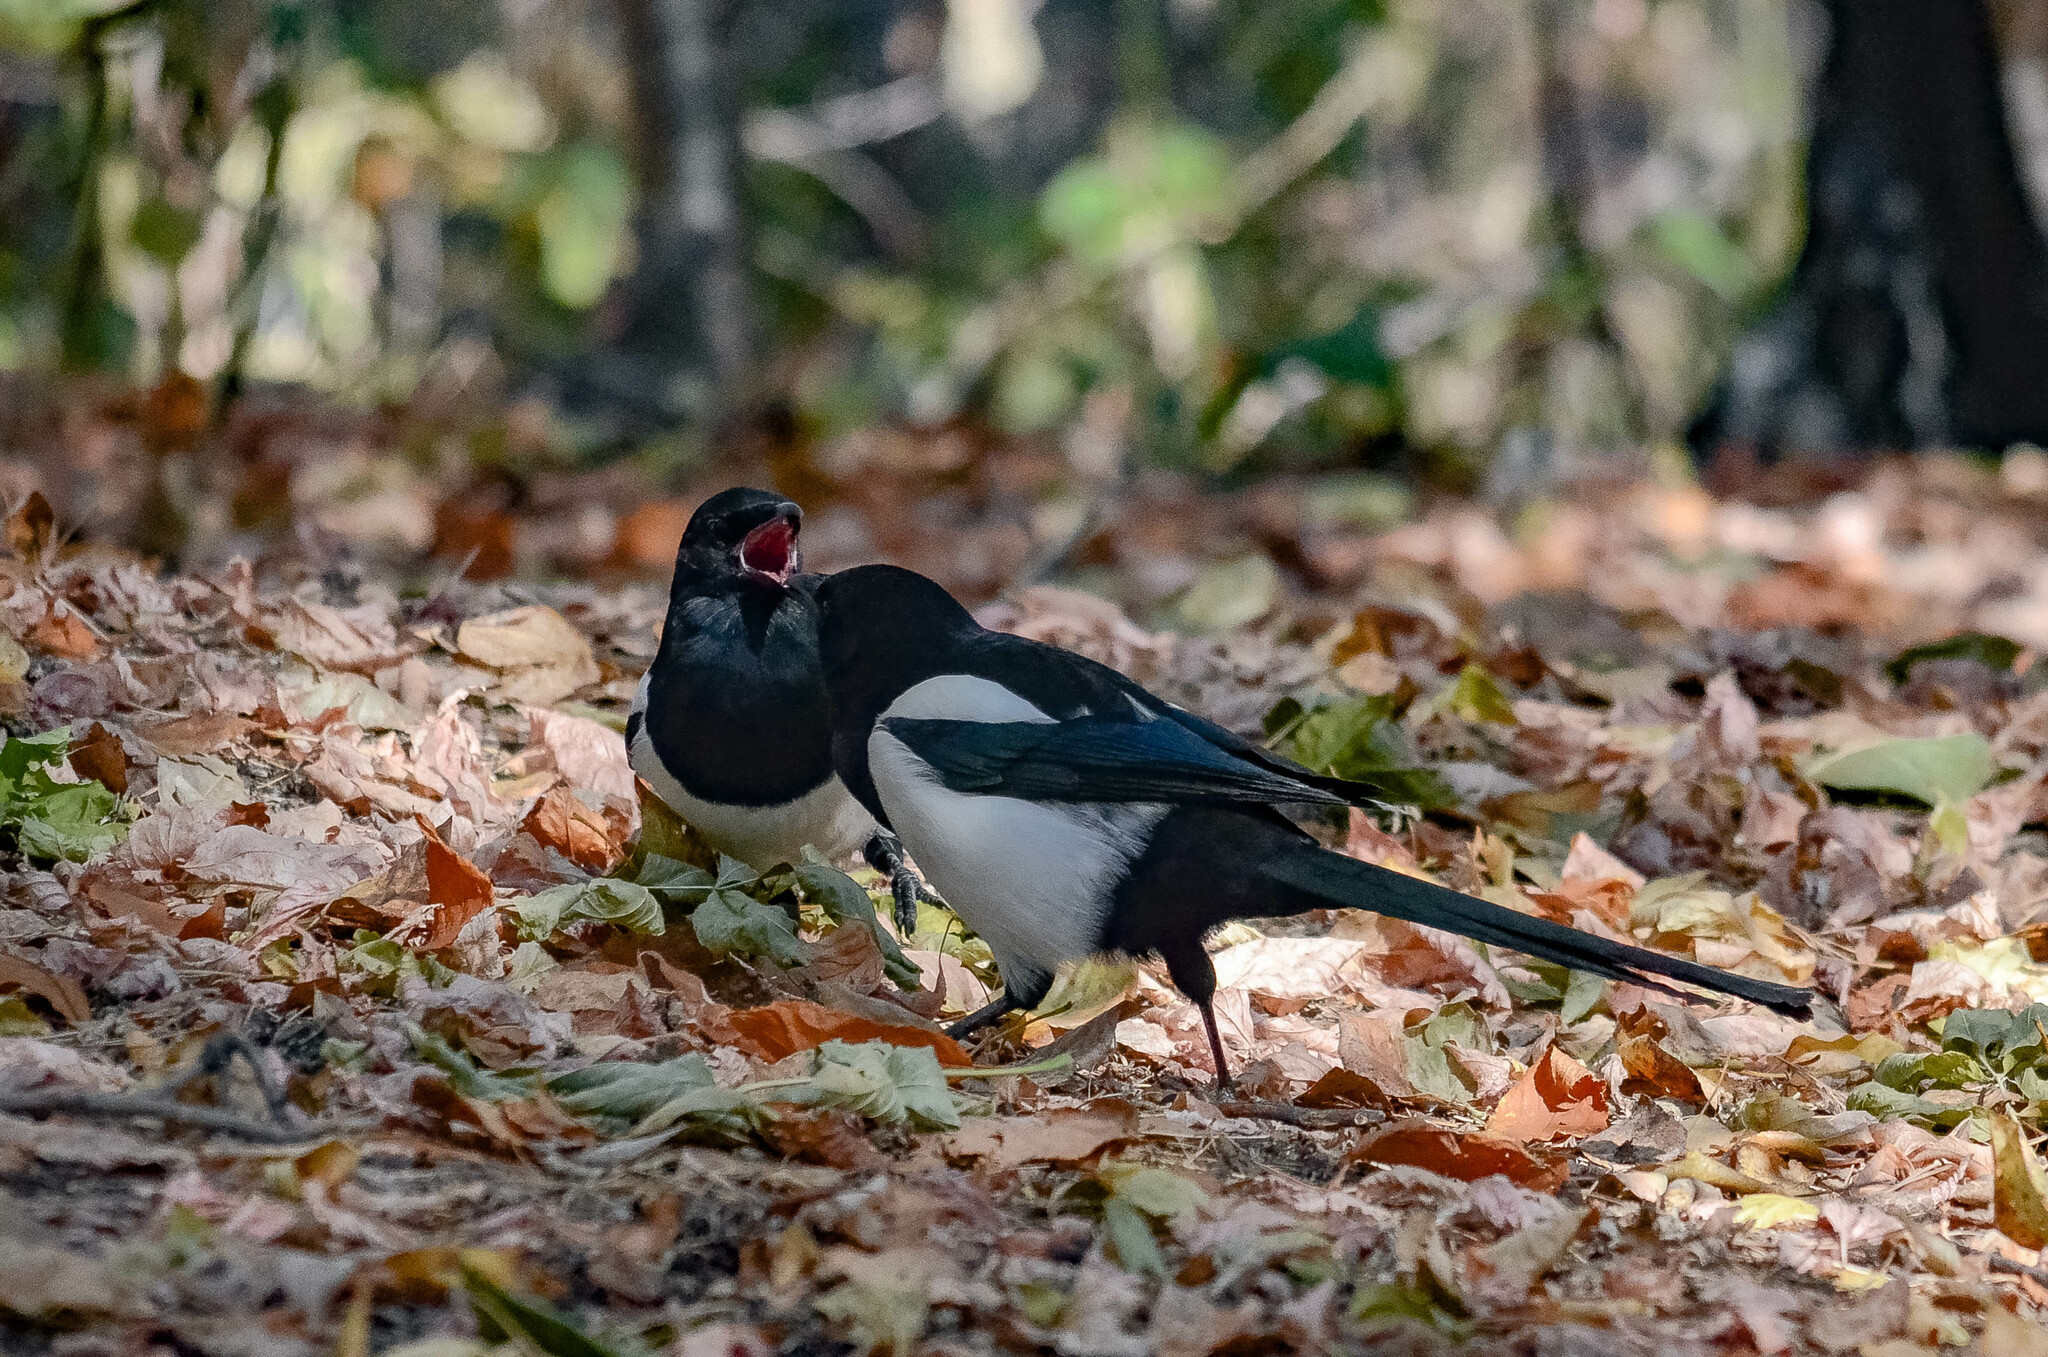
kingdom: Animalia
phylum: Chordata
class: Aves
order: Passeriformes
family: Corvidae
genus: Pica
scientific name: Pica pica
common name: Eurasian magpie
